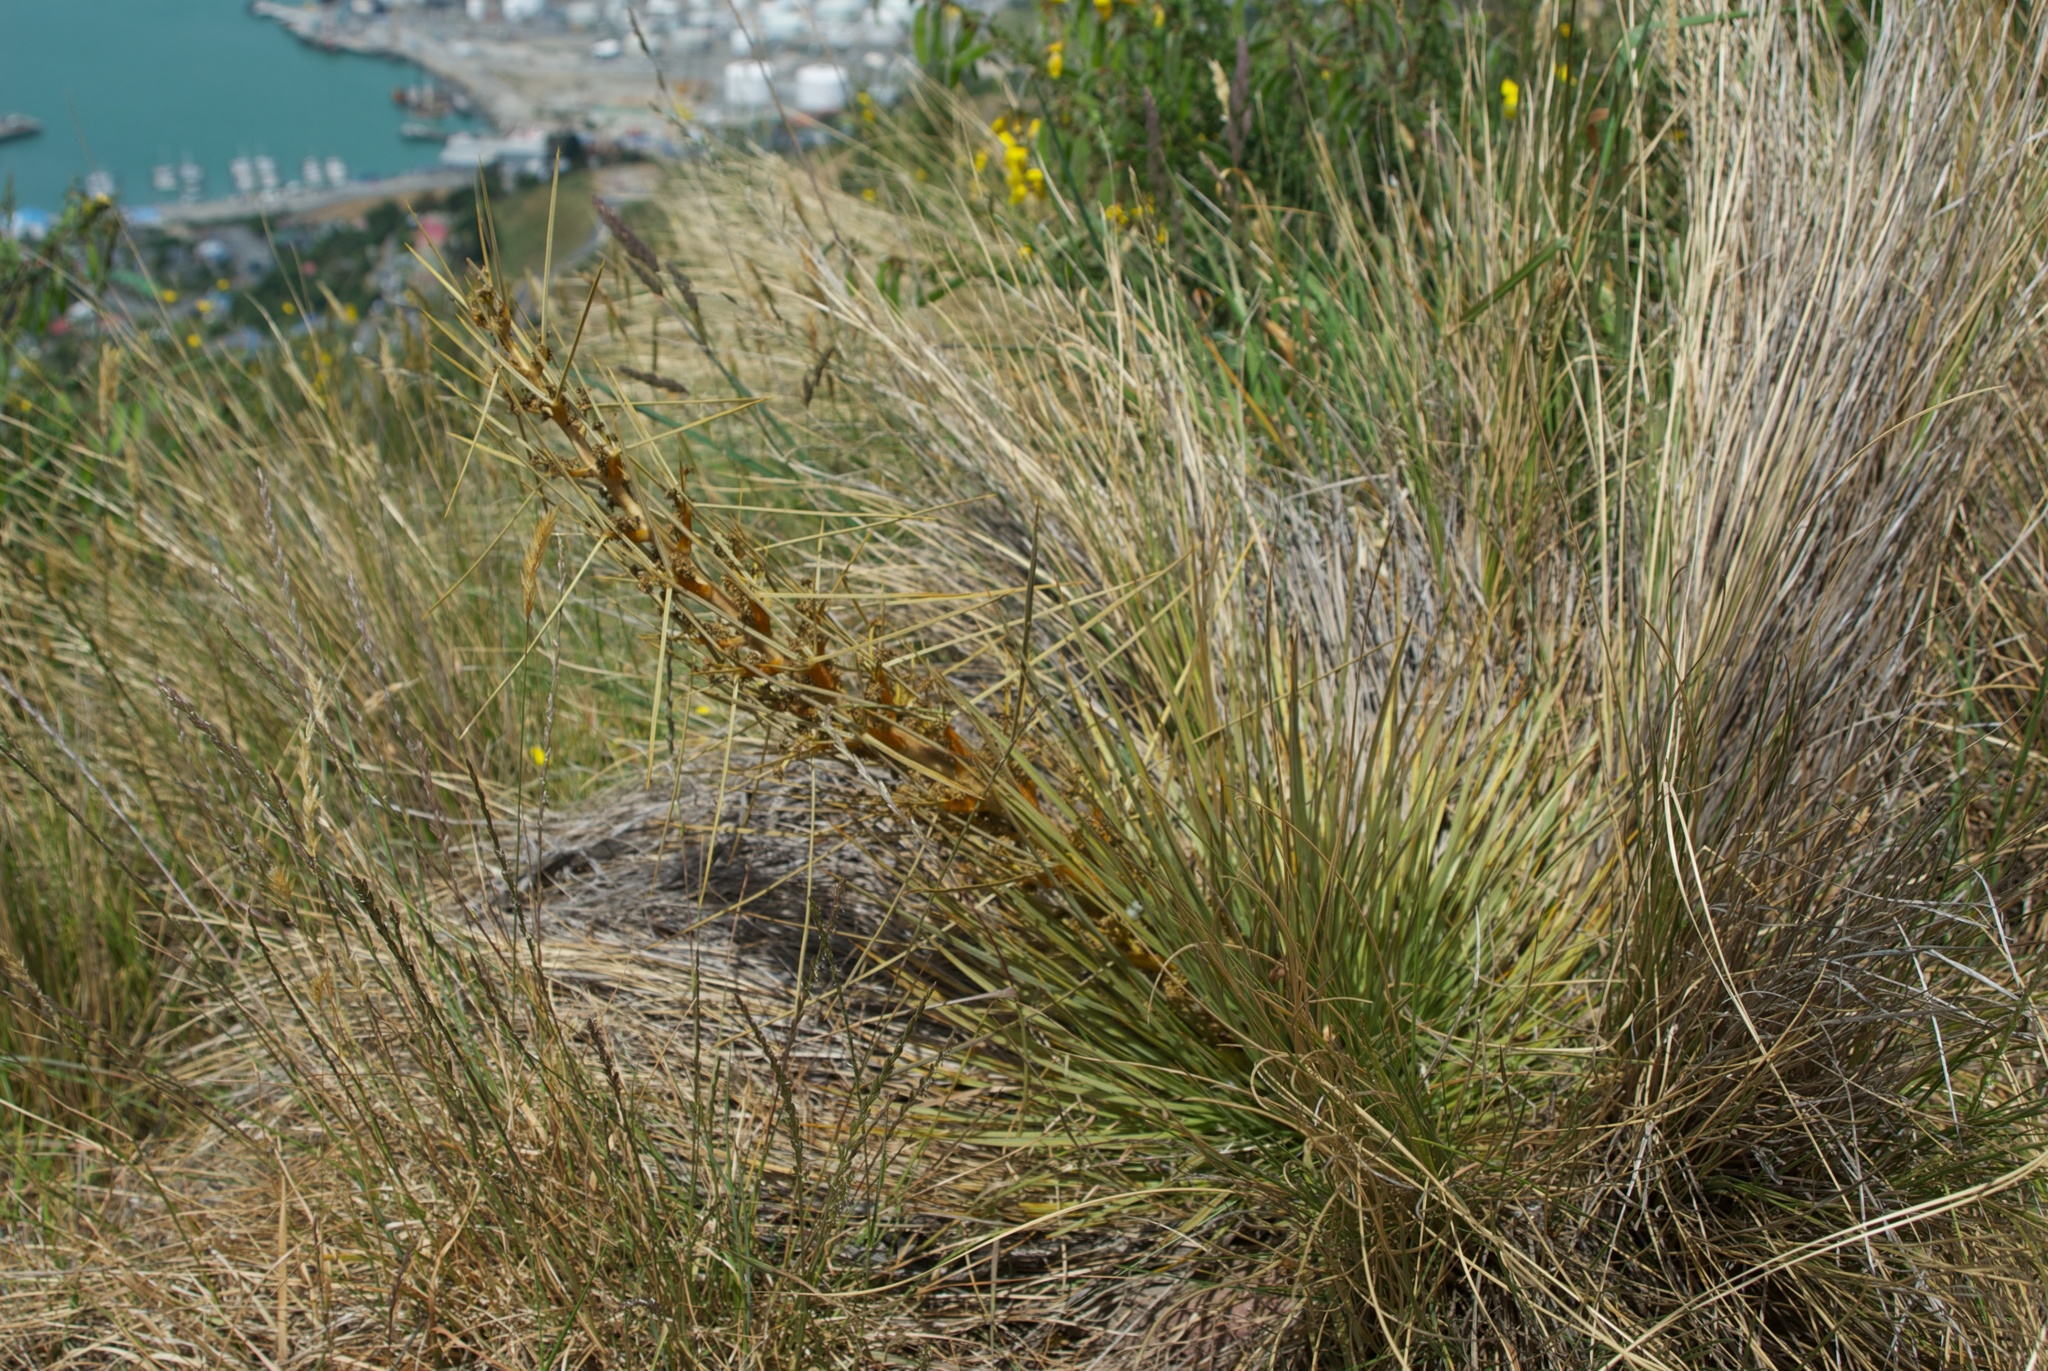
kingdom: Plantae
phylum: Tracheophyta
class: Magnoliopsida
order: Apiales
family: Apiaceae
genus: Aciphylla
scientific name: Aciphylla subflabellata
